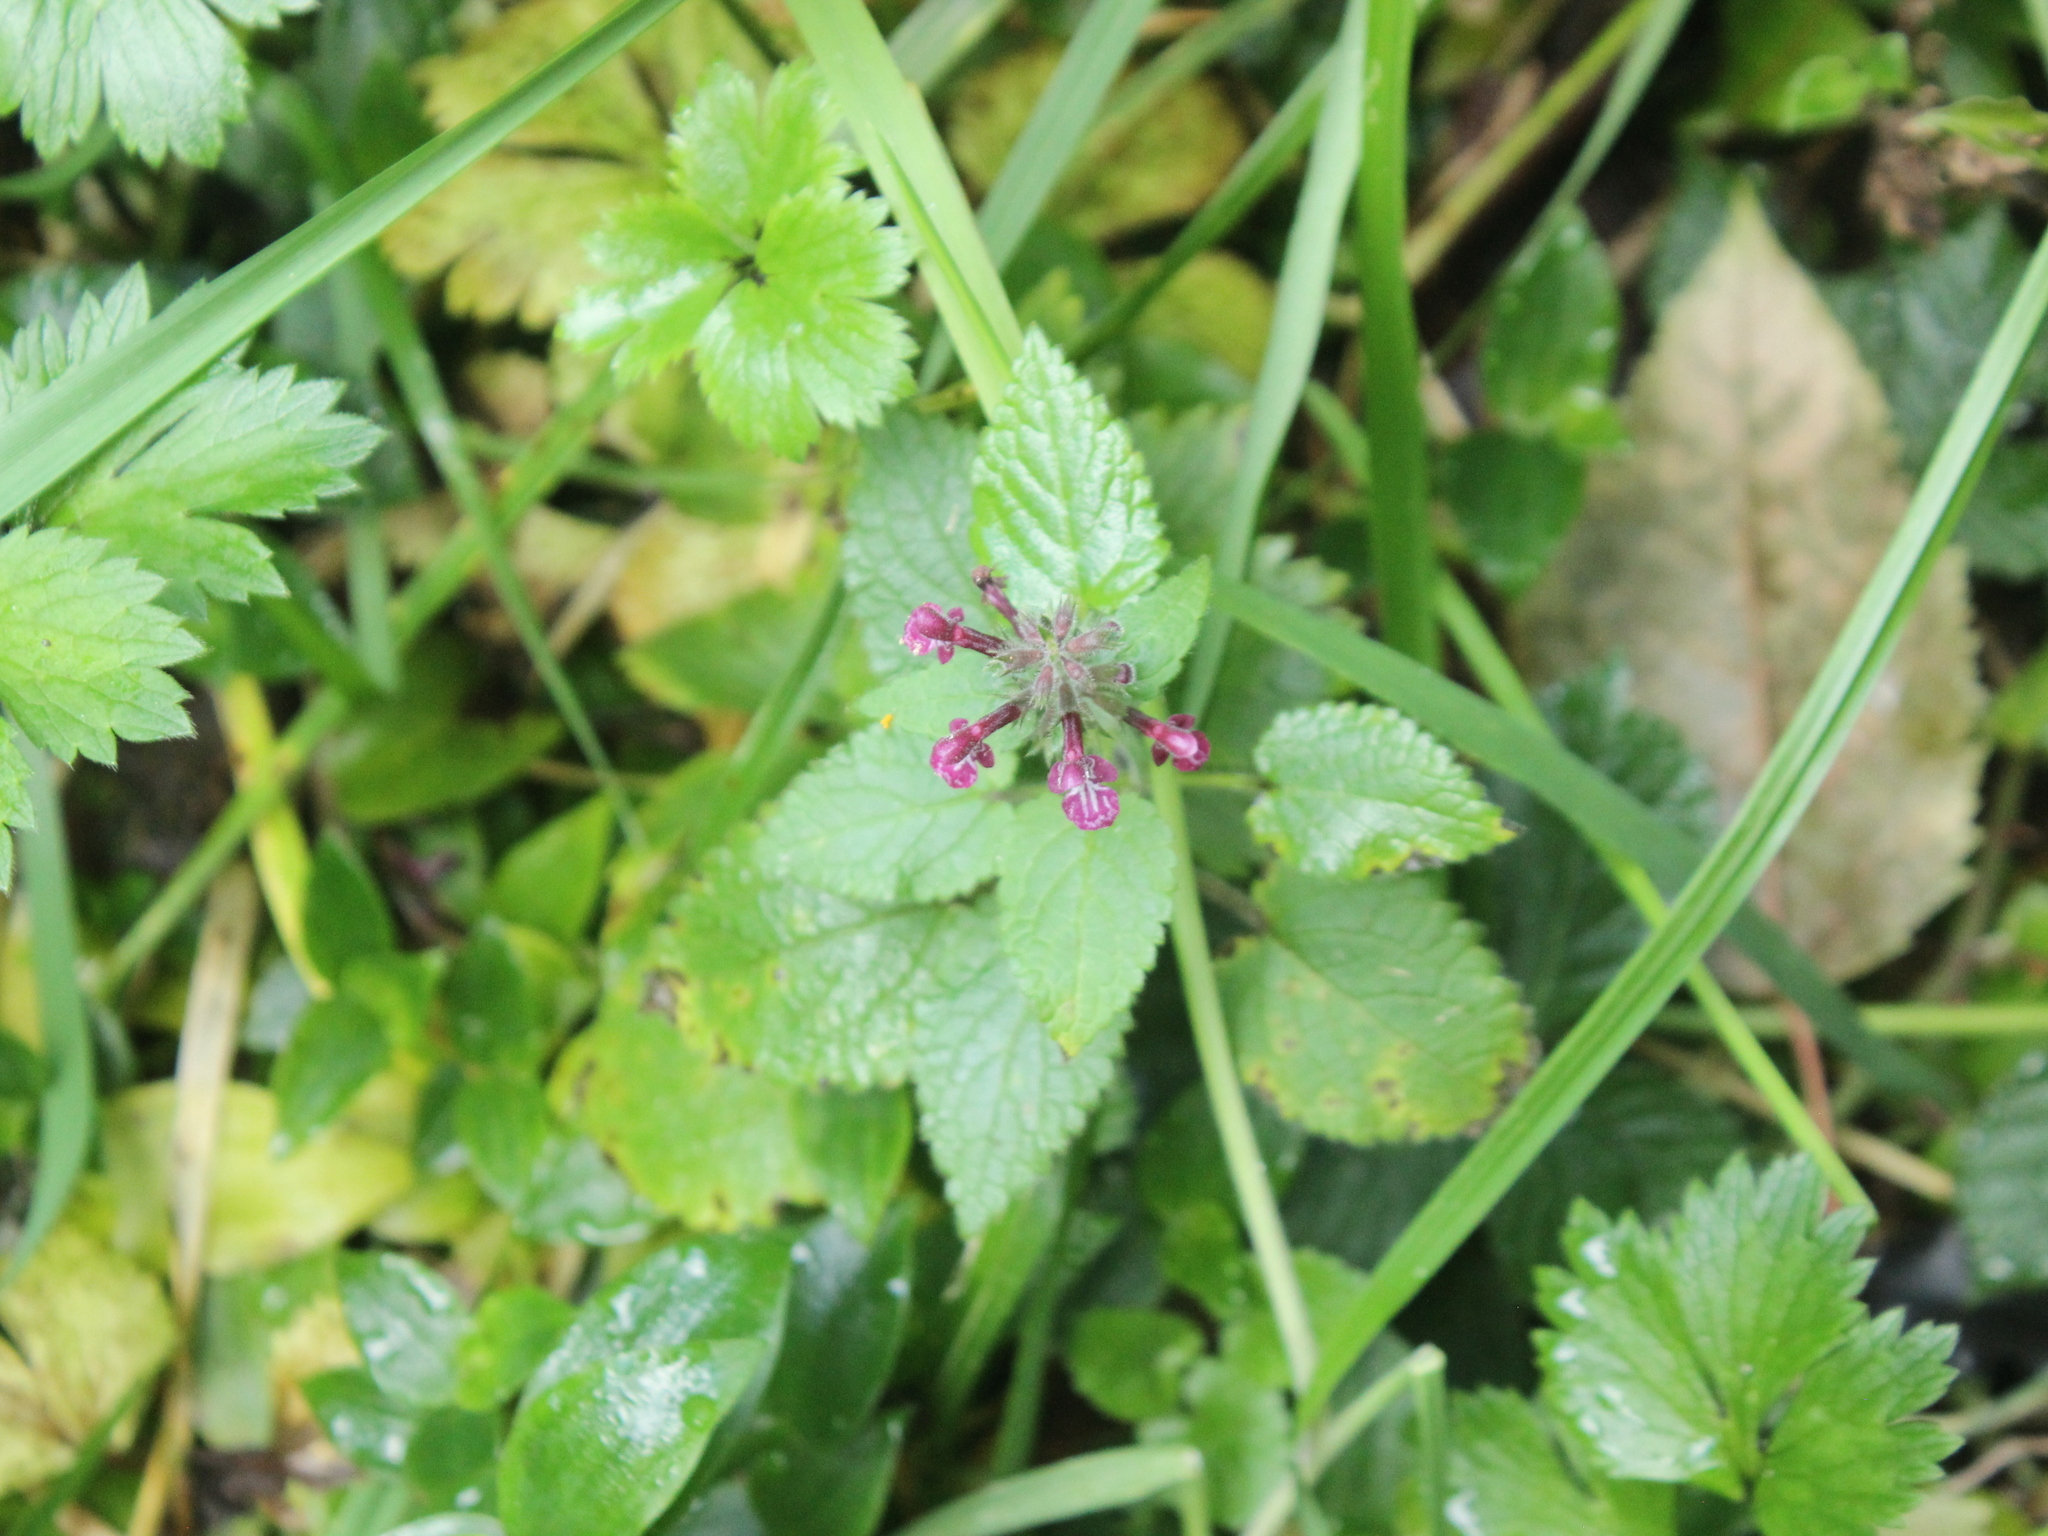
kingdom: Plantae
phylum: Tracheophyta
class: Magnoliopsida
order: Lamiales
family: Lamiaceae
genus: Stachys
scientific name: Stachys sylvatica
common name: Hedge woundwort
